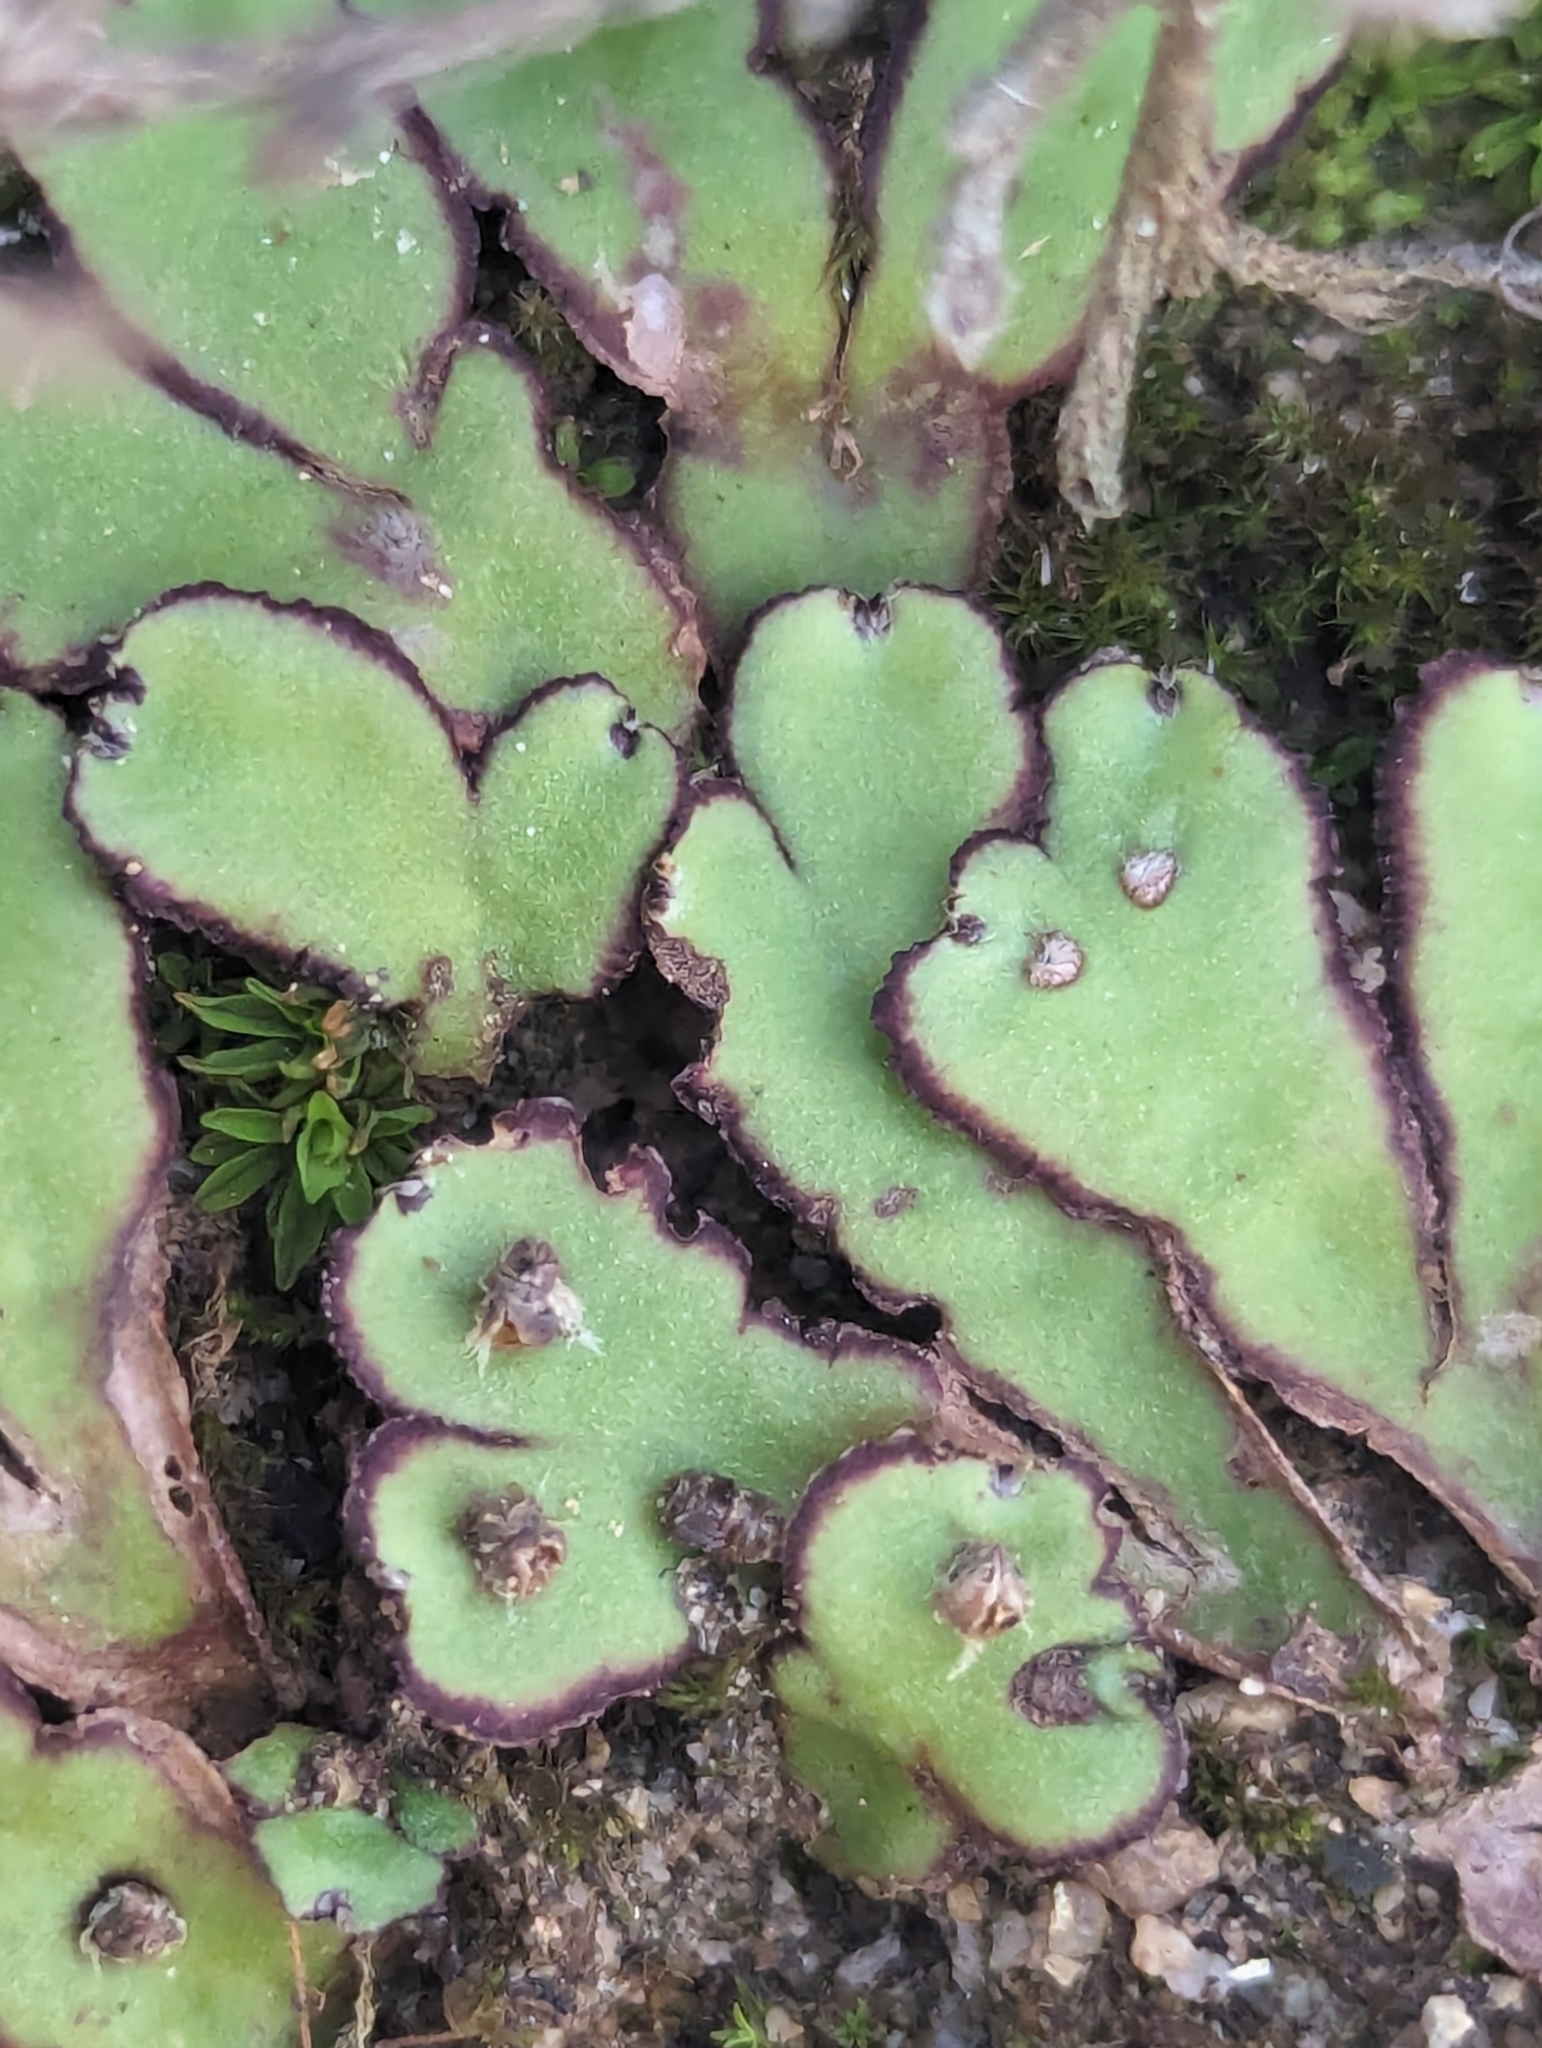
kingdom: Plantae
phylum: Marchantiophyta
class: Marchantiopsida
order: Marchantiales
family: Aytoniaceae
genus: Plagiochasma
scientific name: Plagiochasma rupestre
